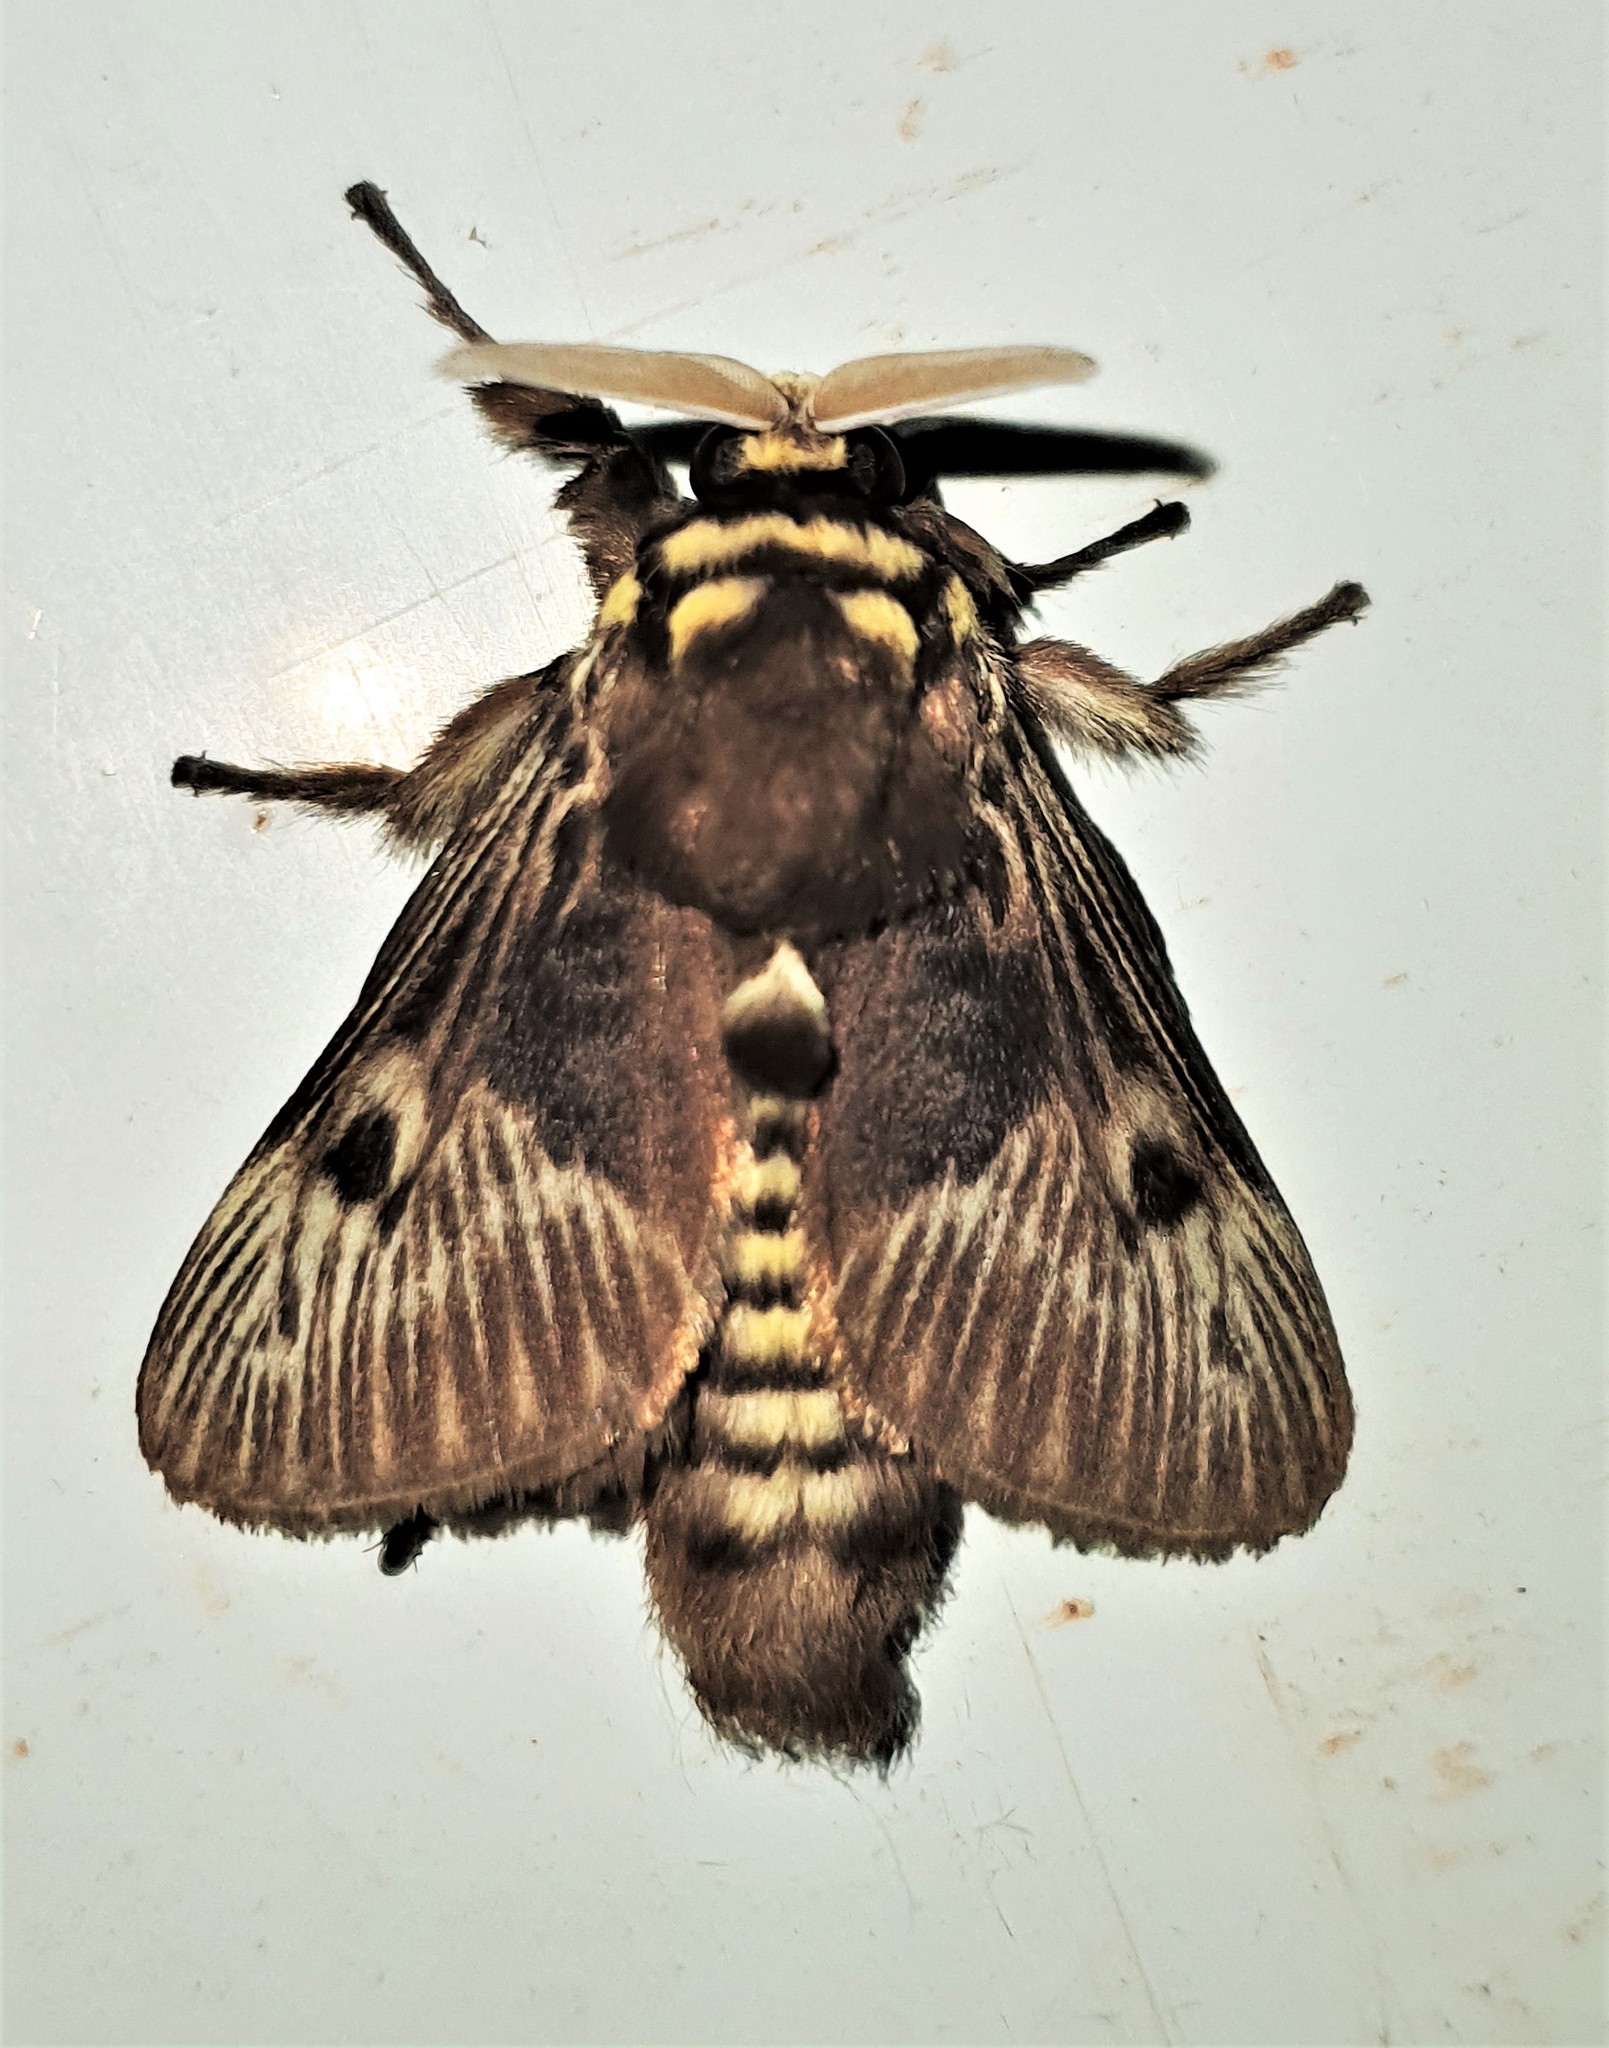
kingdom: Animalia
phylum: Arthropoda
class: Insecta
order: Lepidoptera
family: Megalopygidae
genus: Megalopyge
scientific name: Megalopyge albicollis
